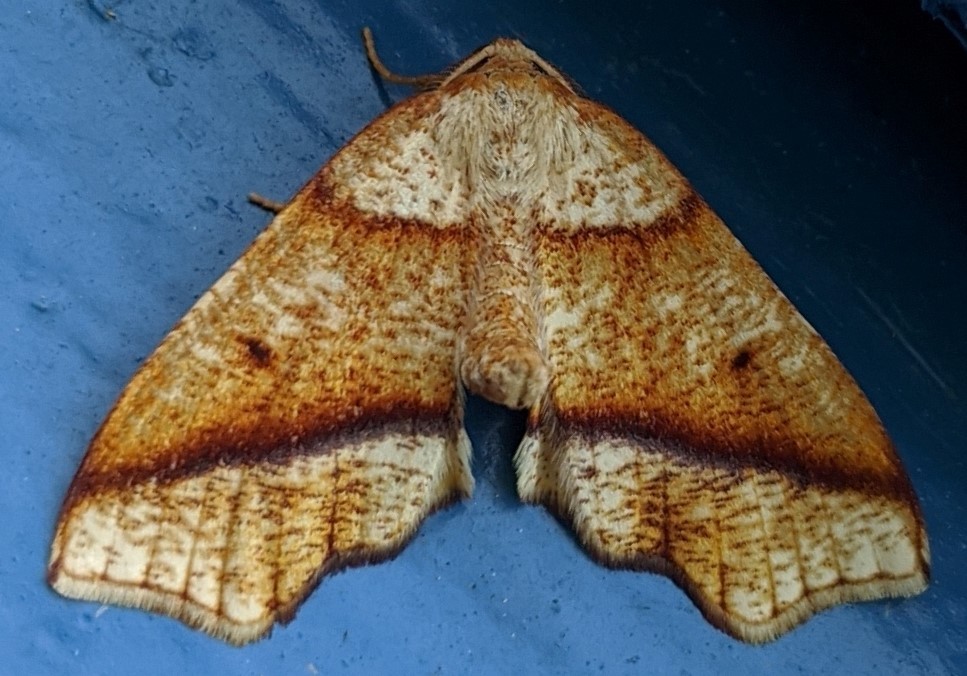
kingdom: Animalia
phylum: Arthropoda
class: Insecta
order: Lepidoptera
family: Geometridae
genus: Plagodis
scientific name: Plagodis alcoolaria
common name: Hollow-spotted plagodis
